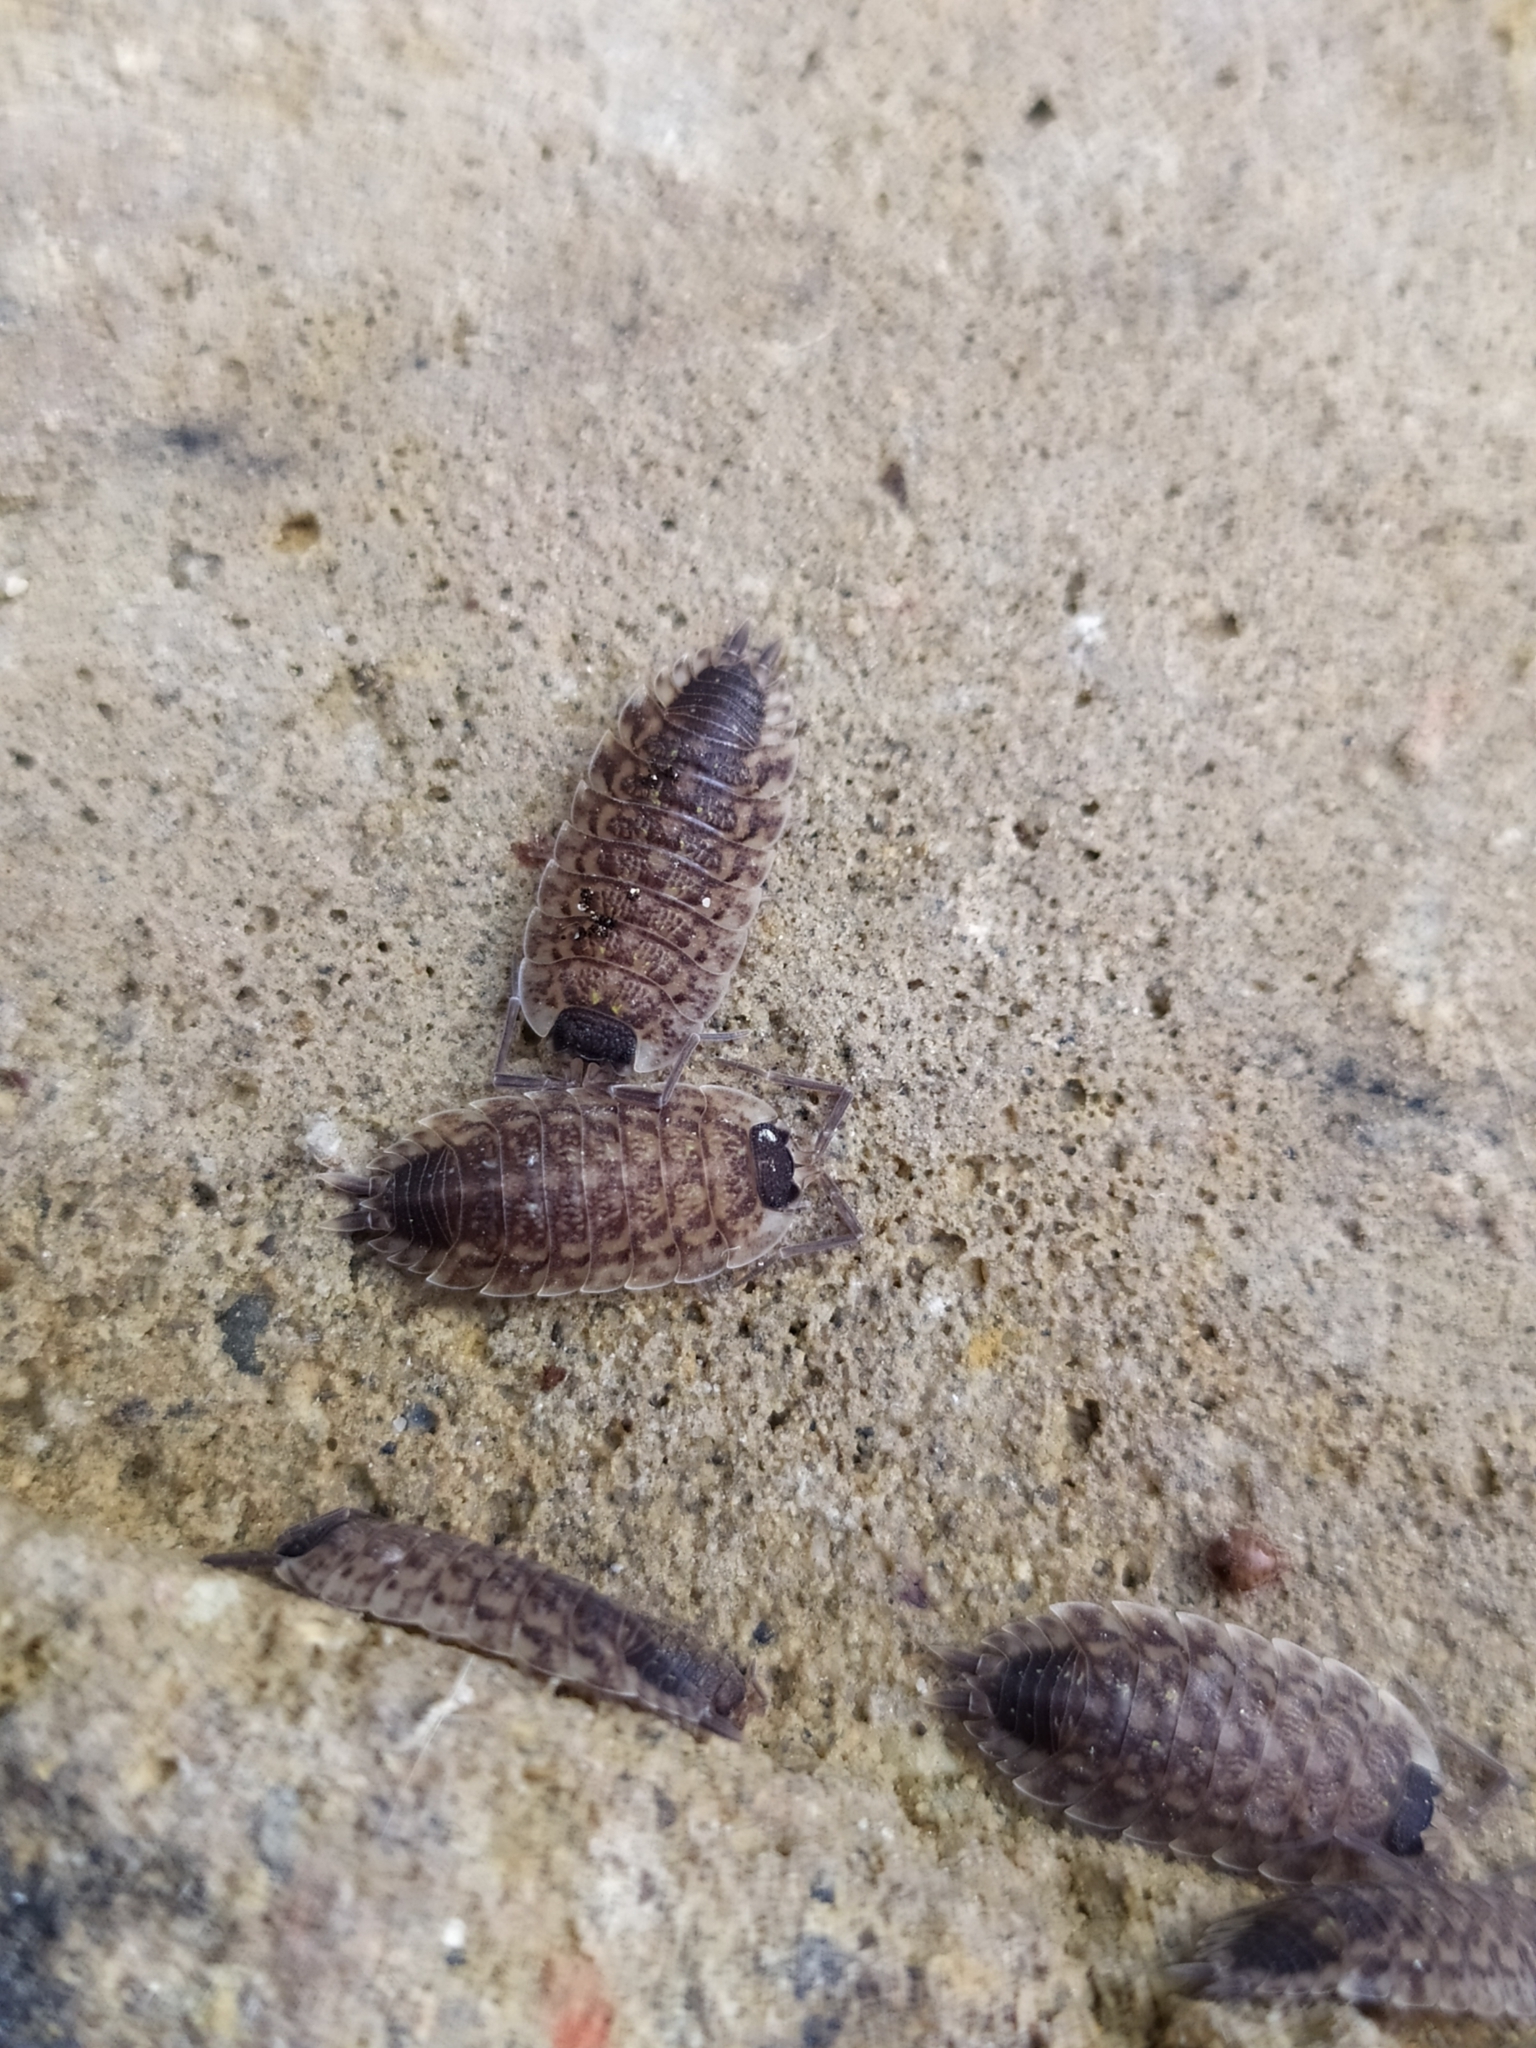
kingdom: Animalia
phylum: Arthropoda
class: Malacostraca
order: Isopoda
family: Porcellionidae
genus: Porcellio
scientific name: Porcellio spinicornis
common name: Painted woodlouse
